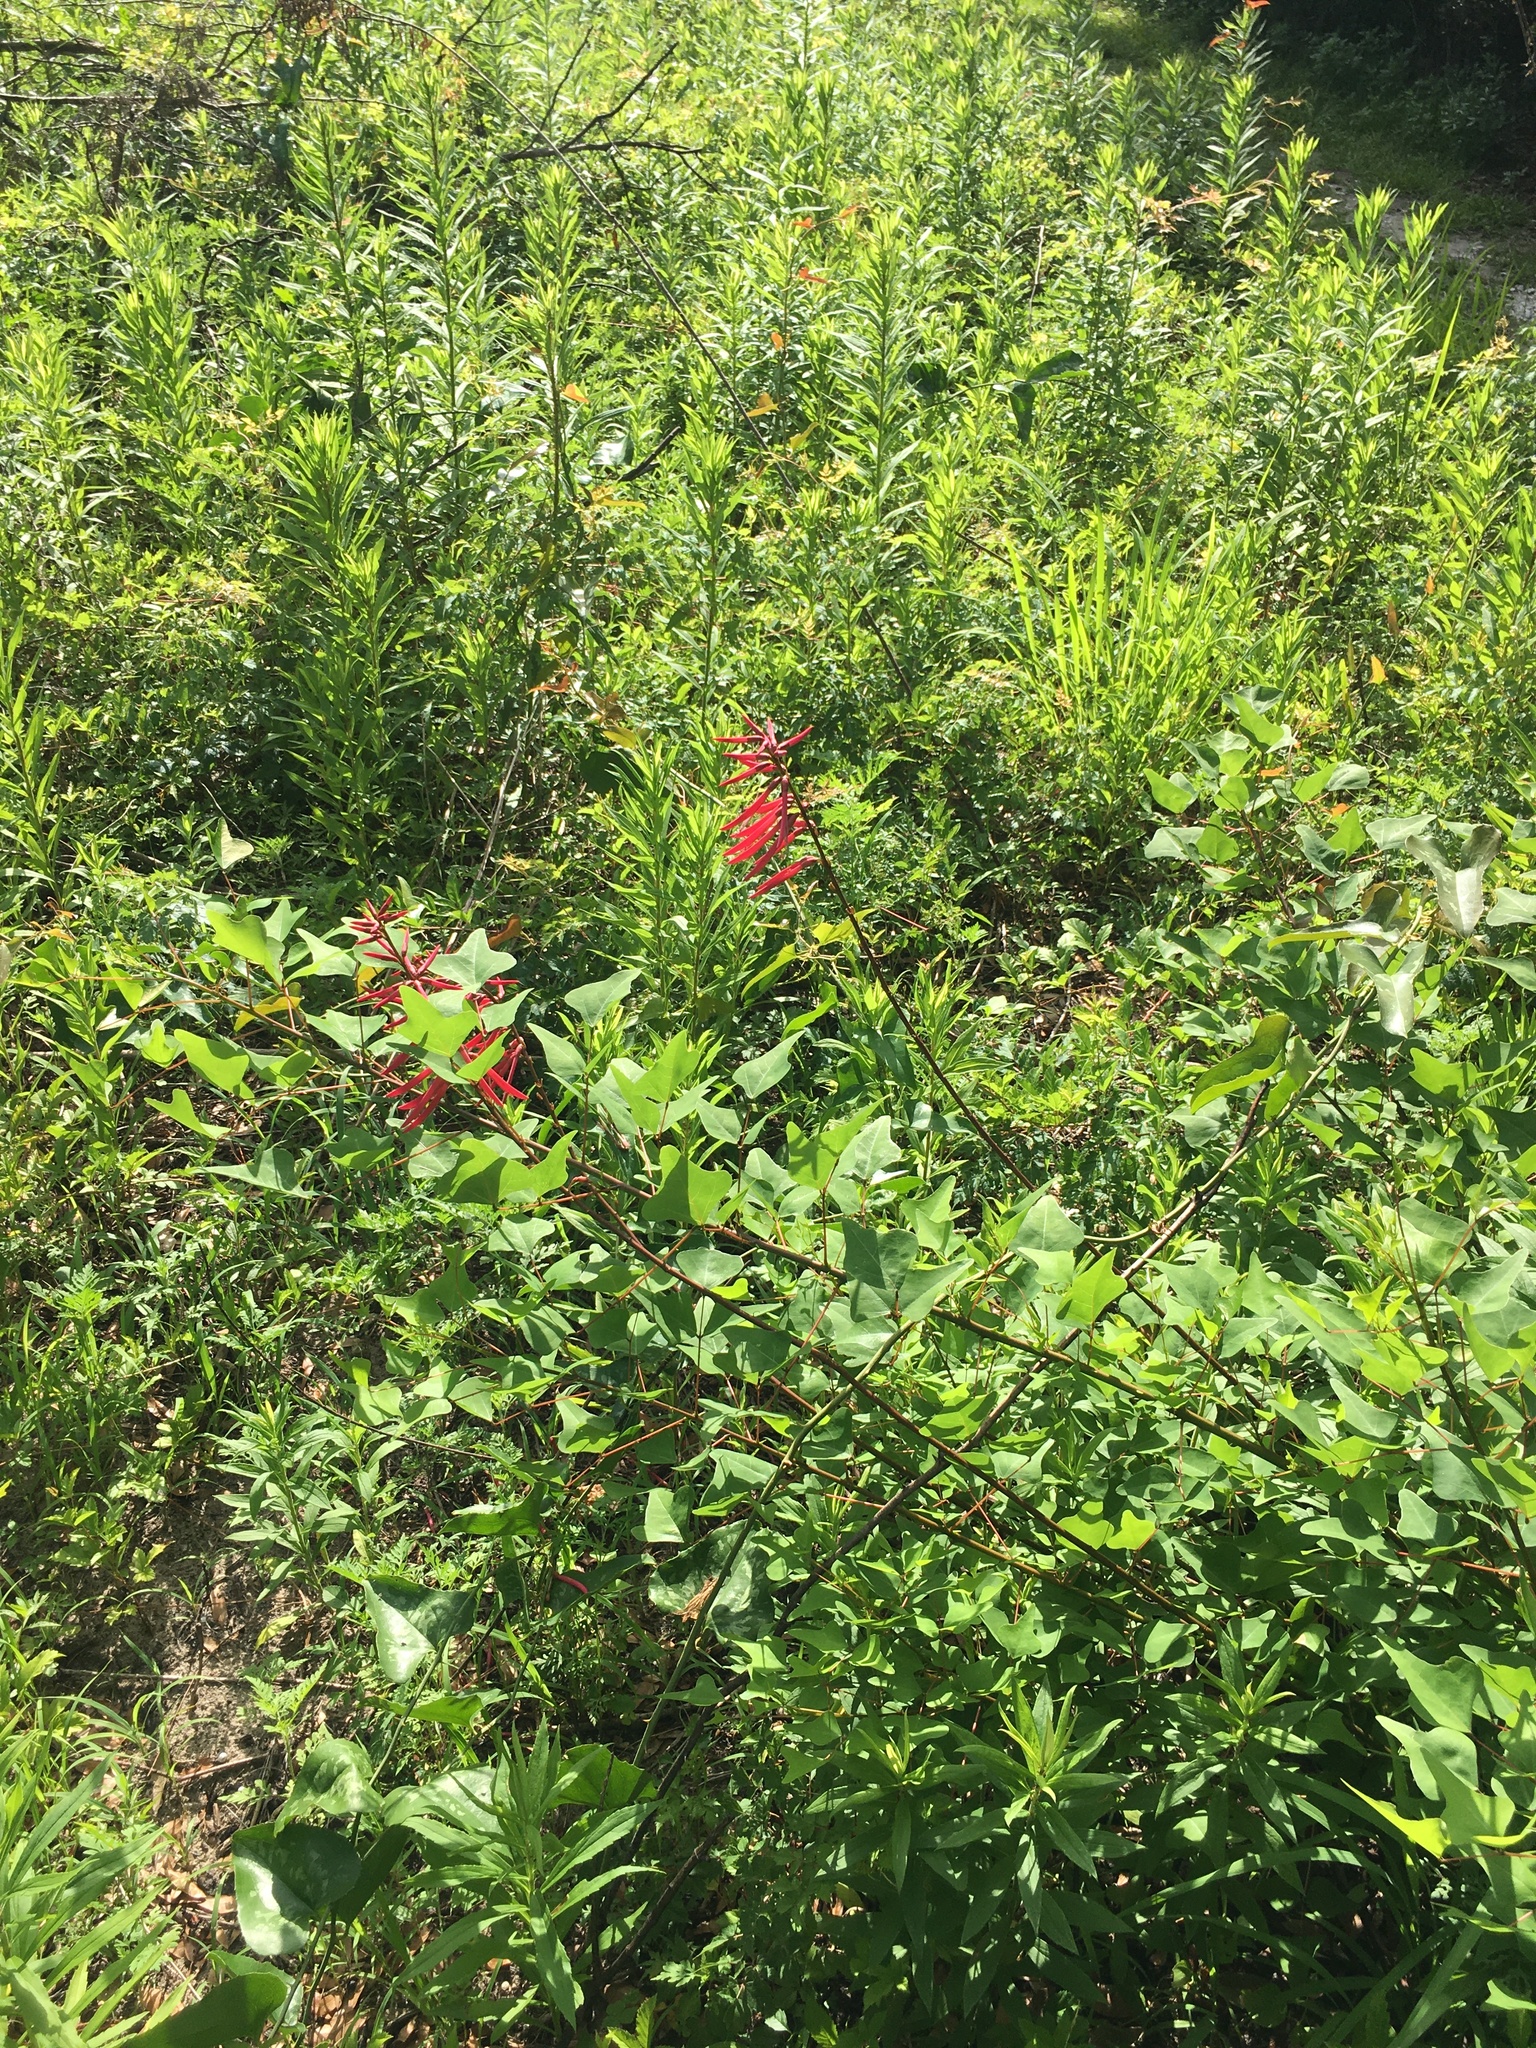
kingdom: Plantae
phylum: Tracheophyta
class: Magnoliopsida
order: Fabales
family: Fabaceae
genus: Erythrina
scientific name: Erythrina herbacea
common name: Coral-bean
